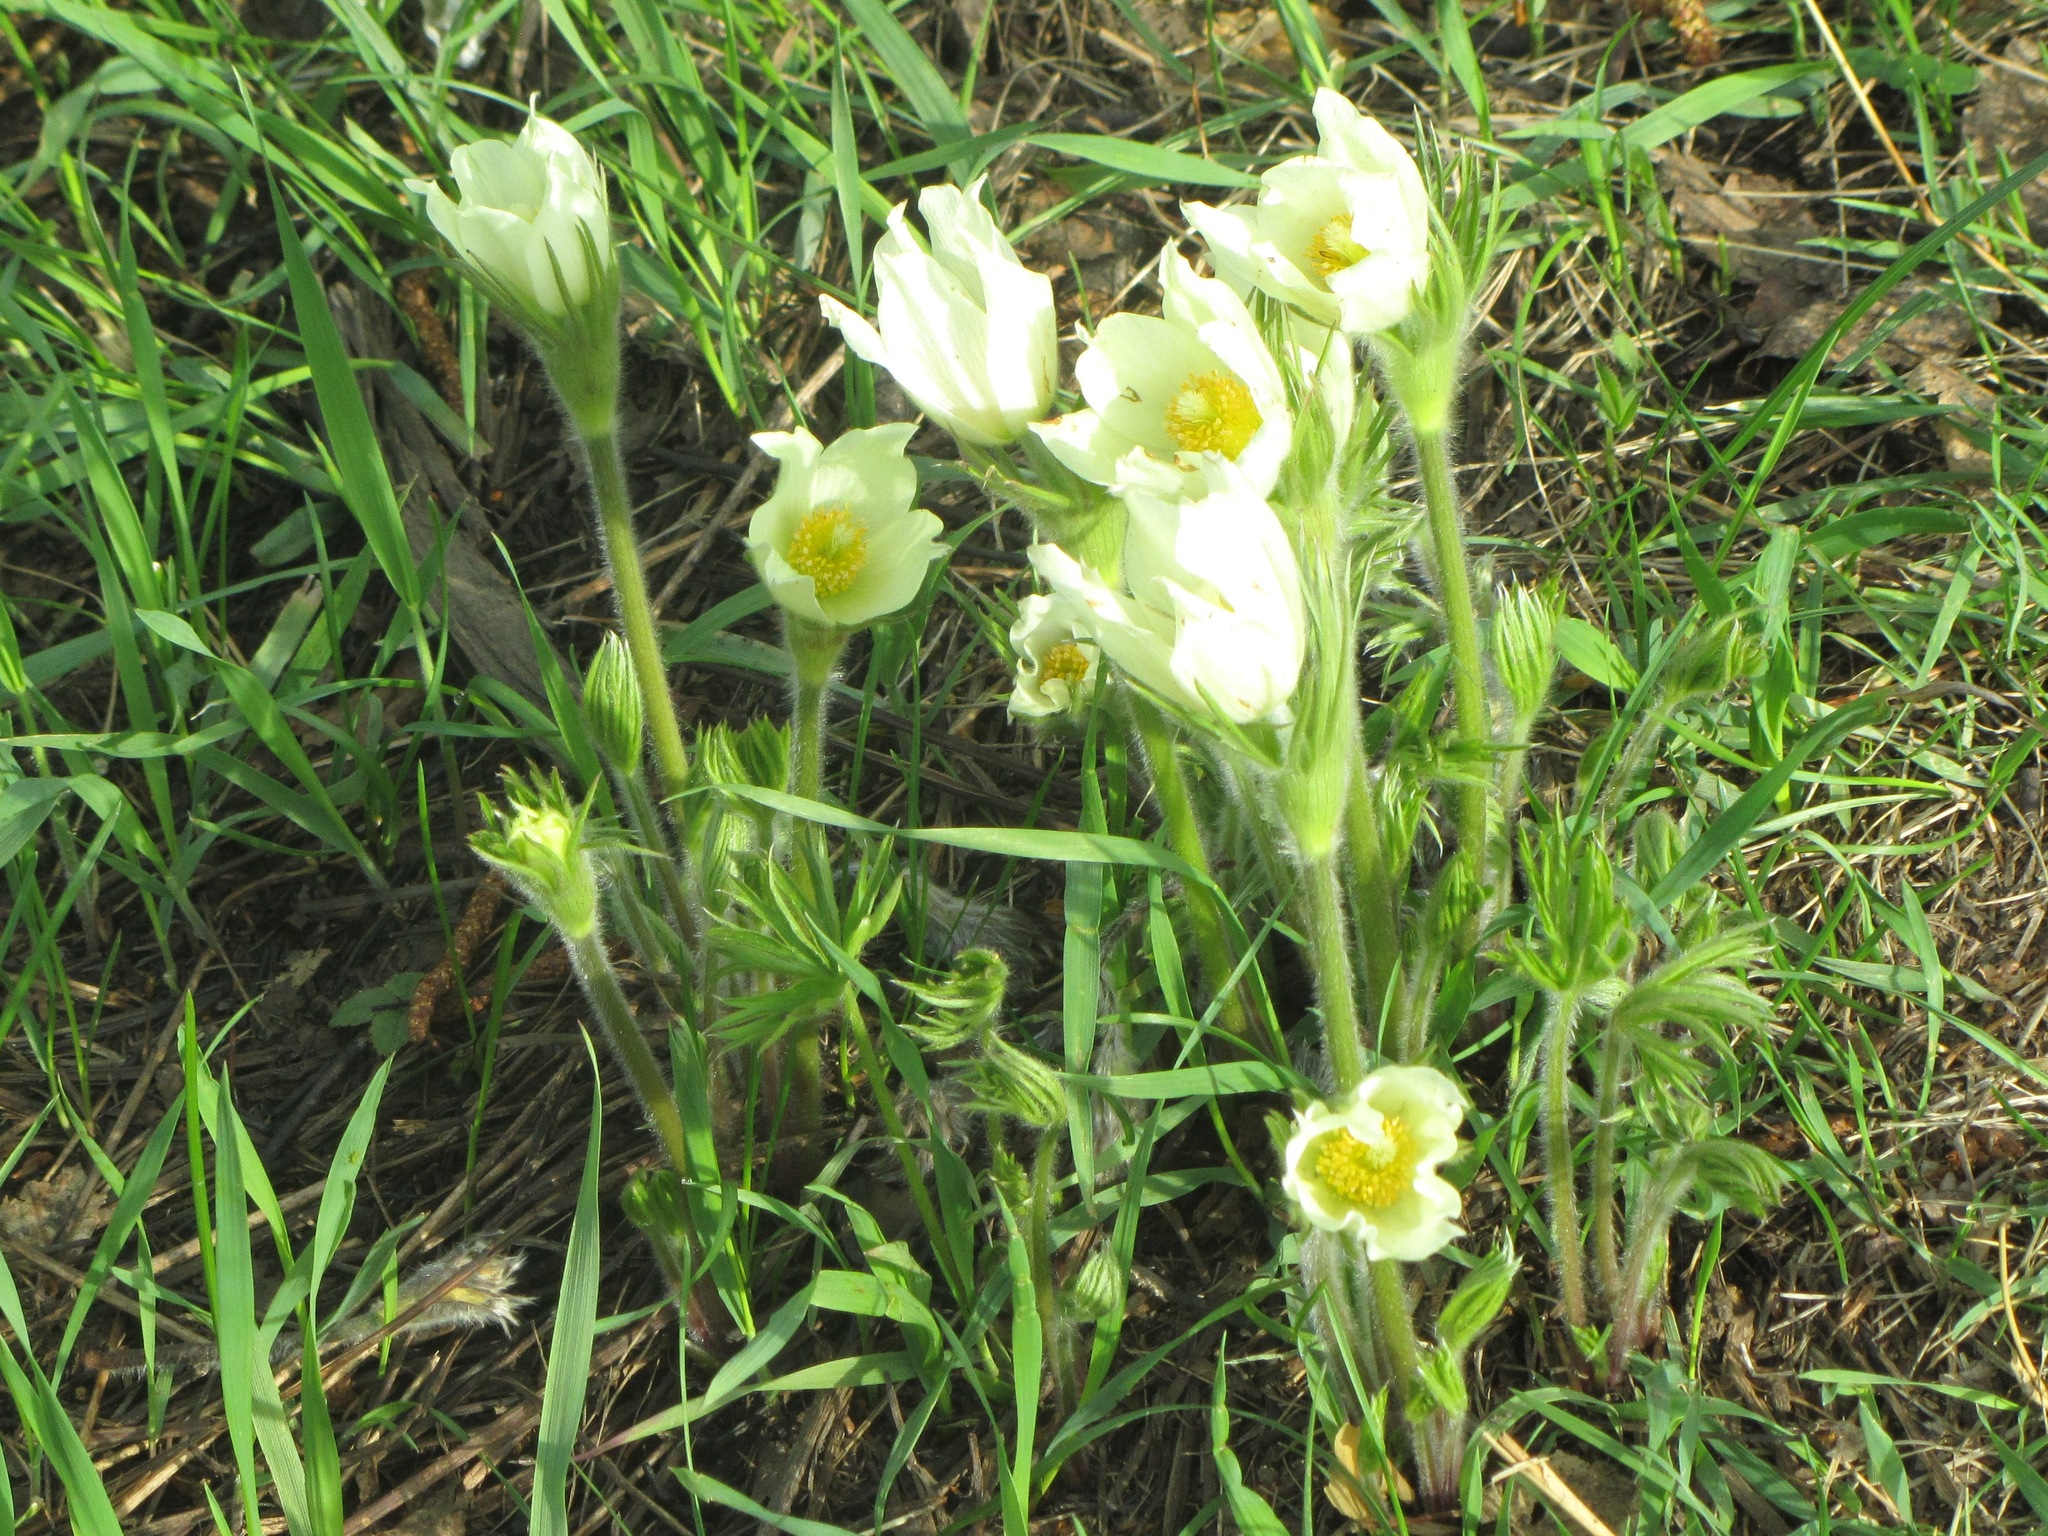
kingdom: Plantae
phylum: Tracheophyta
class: Magnoliopsida
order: Ranunculales
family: Ranunculaceae
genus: Pulsatilla
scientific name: Pulsatilla patens
